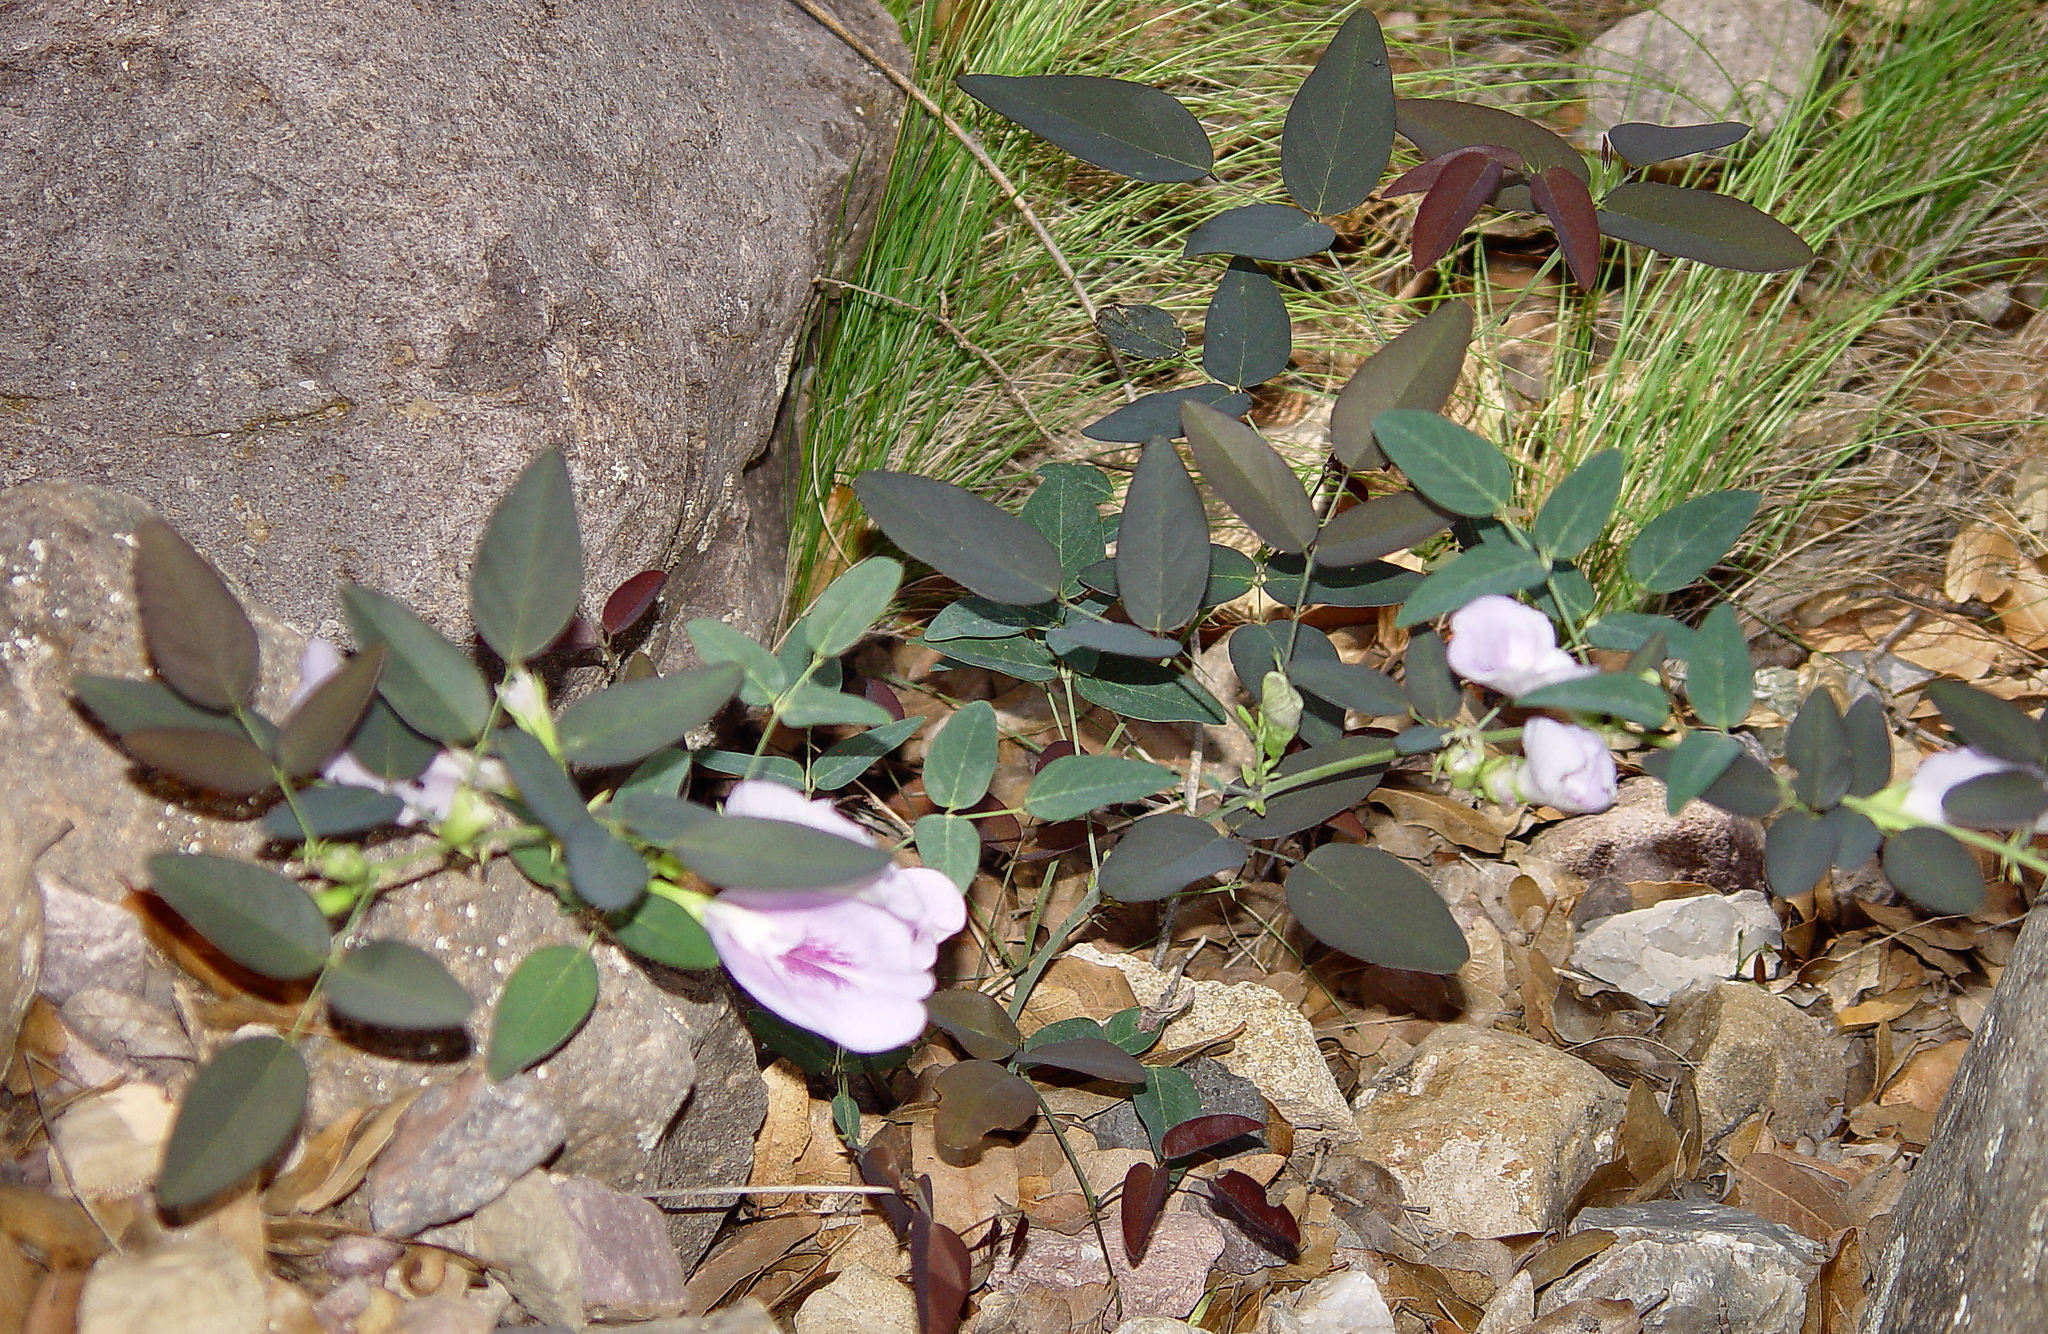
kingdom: Plantae
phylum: Tracheophyta
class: Magnoliopsida
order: Fabales
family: Fabaceae
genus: Clitoria
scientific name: Clitoria mariana
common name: Butterfly-pea
